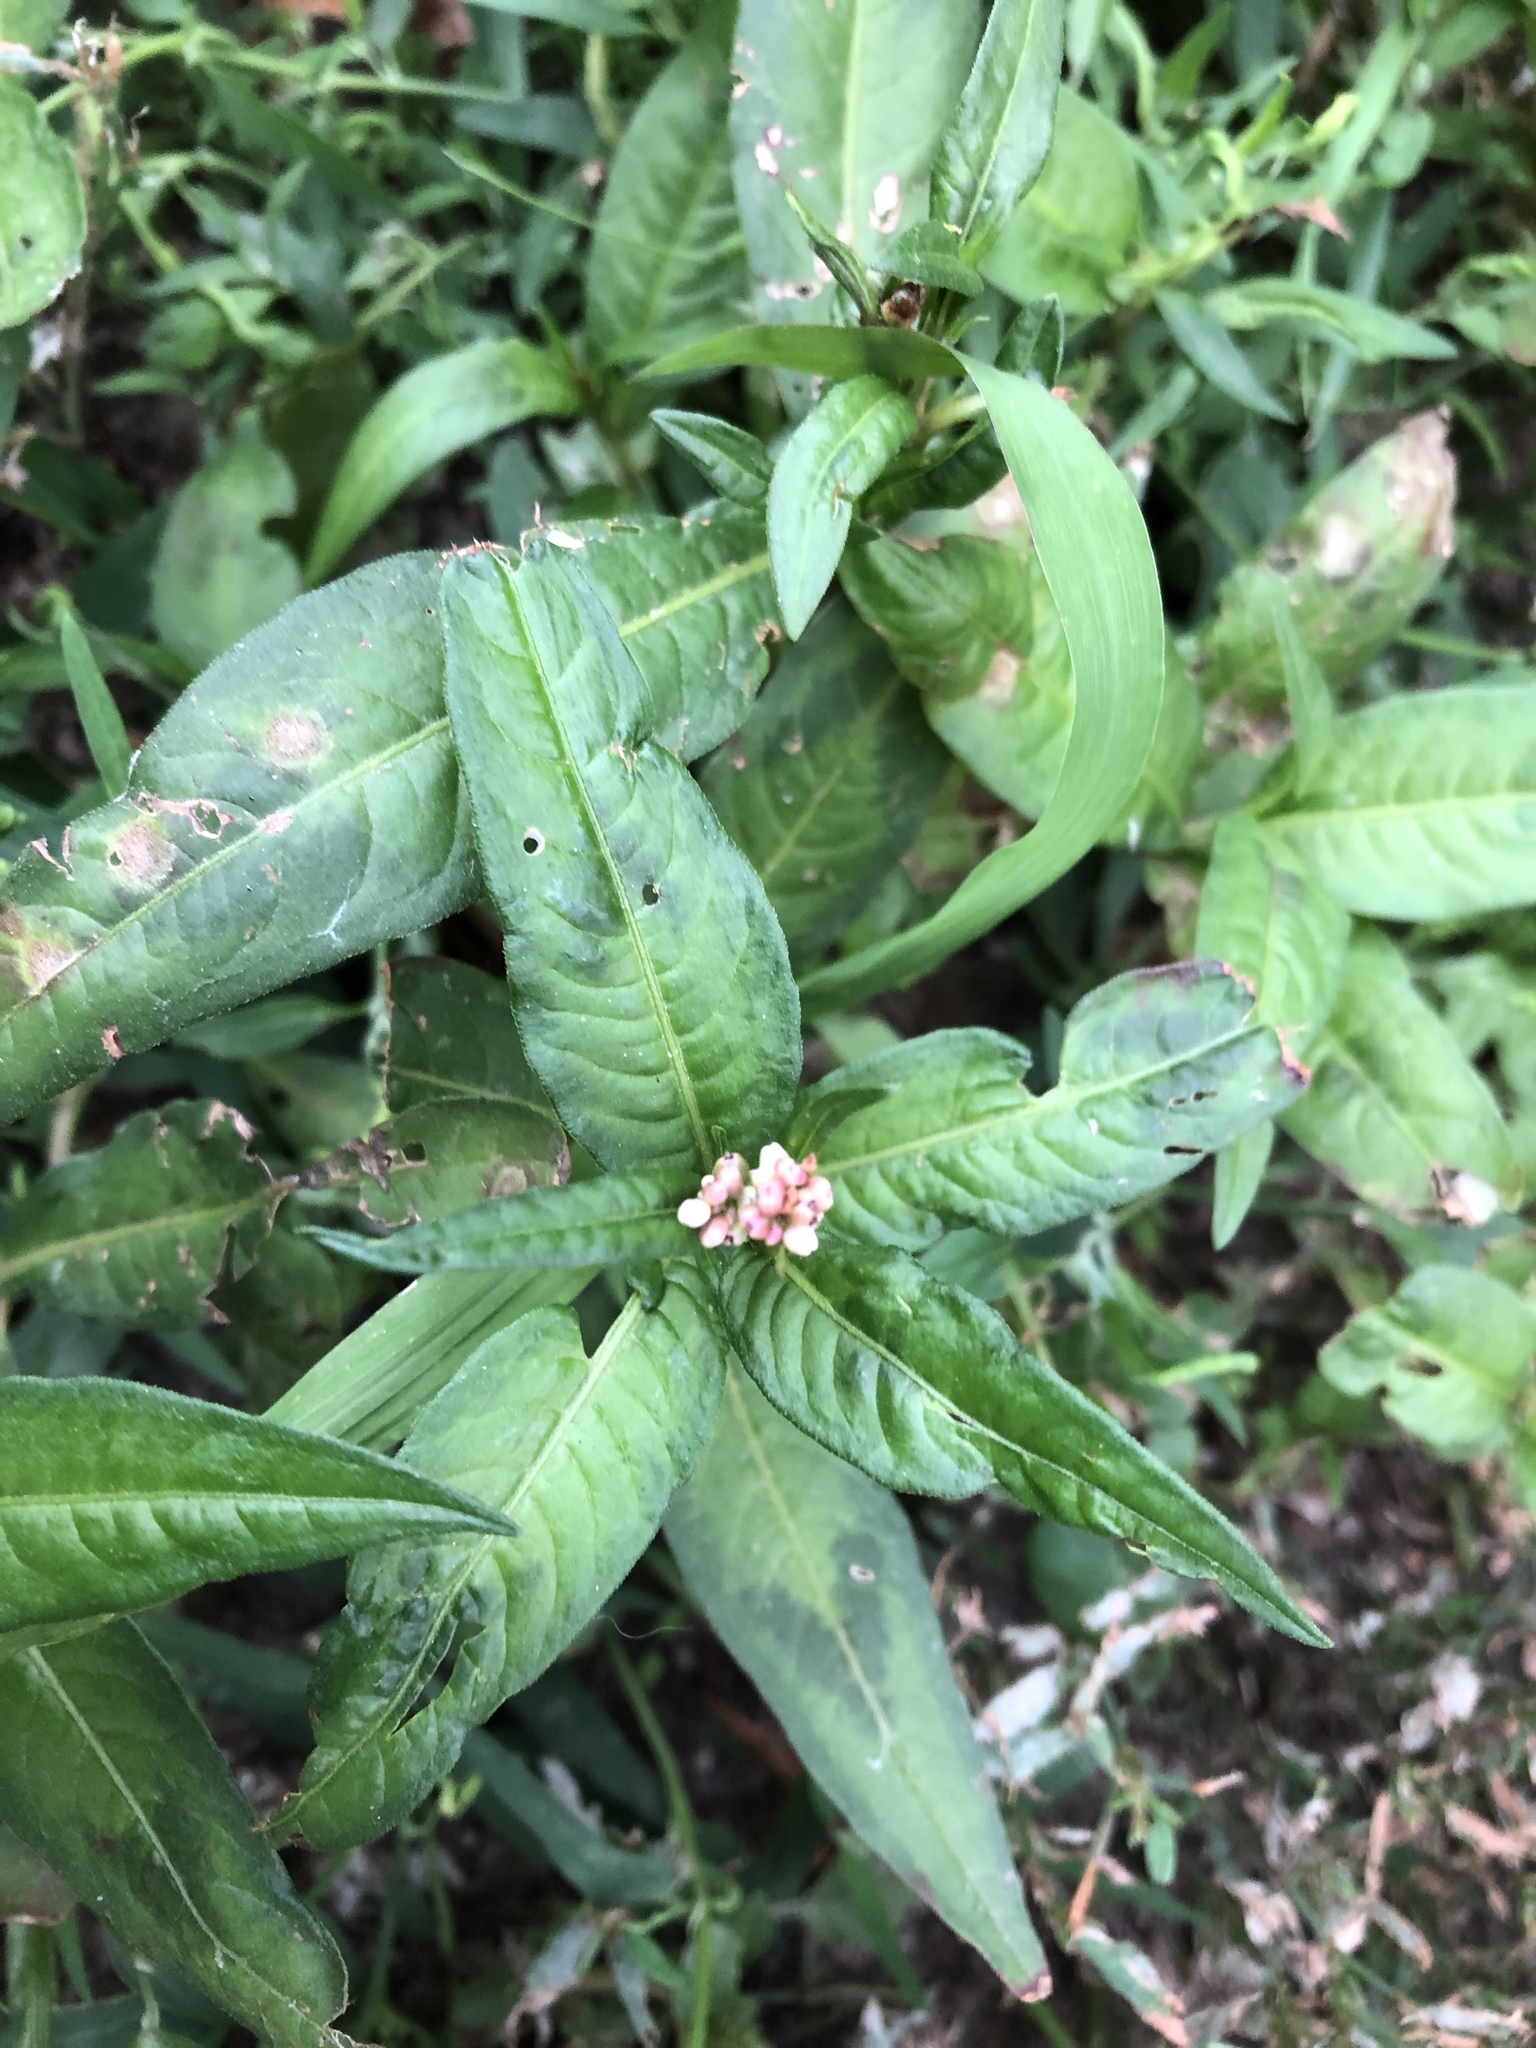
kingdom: Plantae
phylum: Tracheophyta
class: Magnoliopsida
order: Caryophyllales
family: Polygonaceae
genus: Persicaria
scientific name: Persicaria maculosa
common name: Redshank
